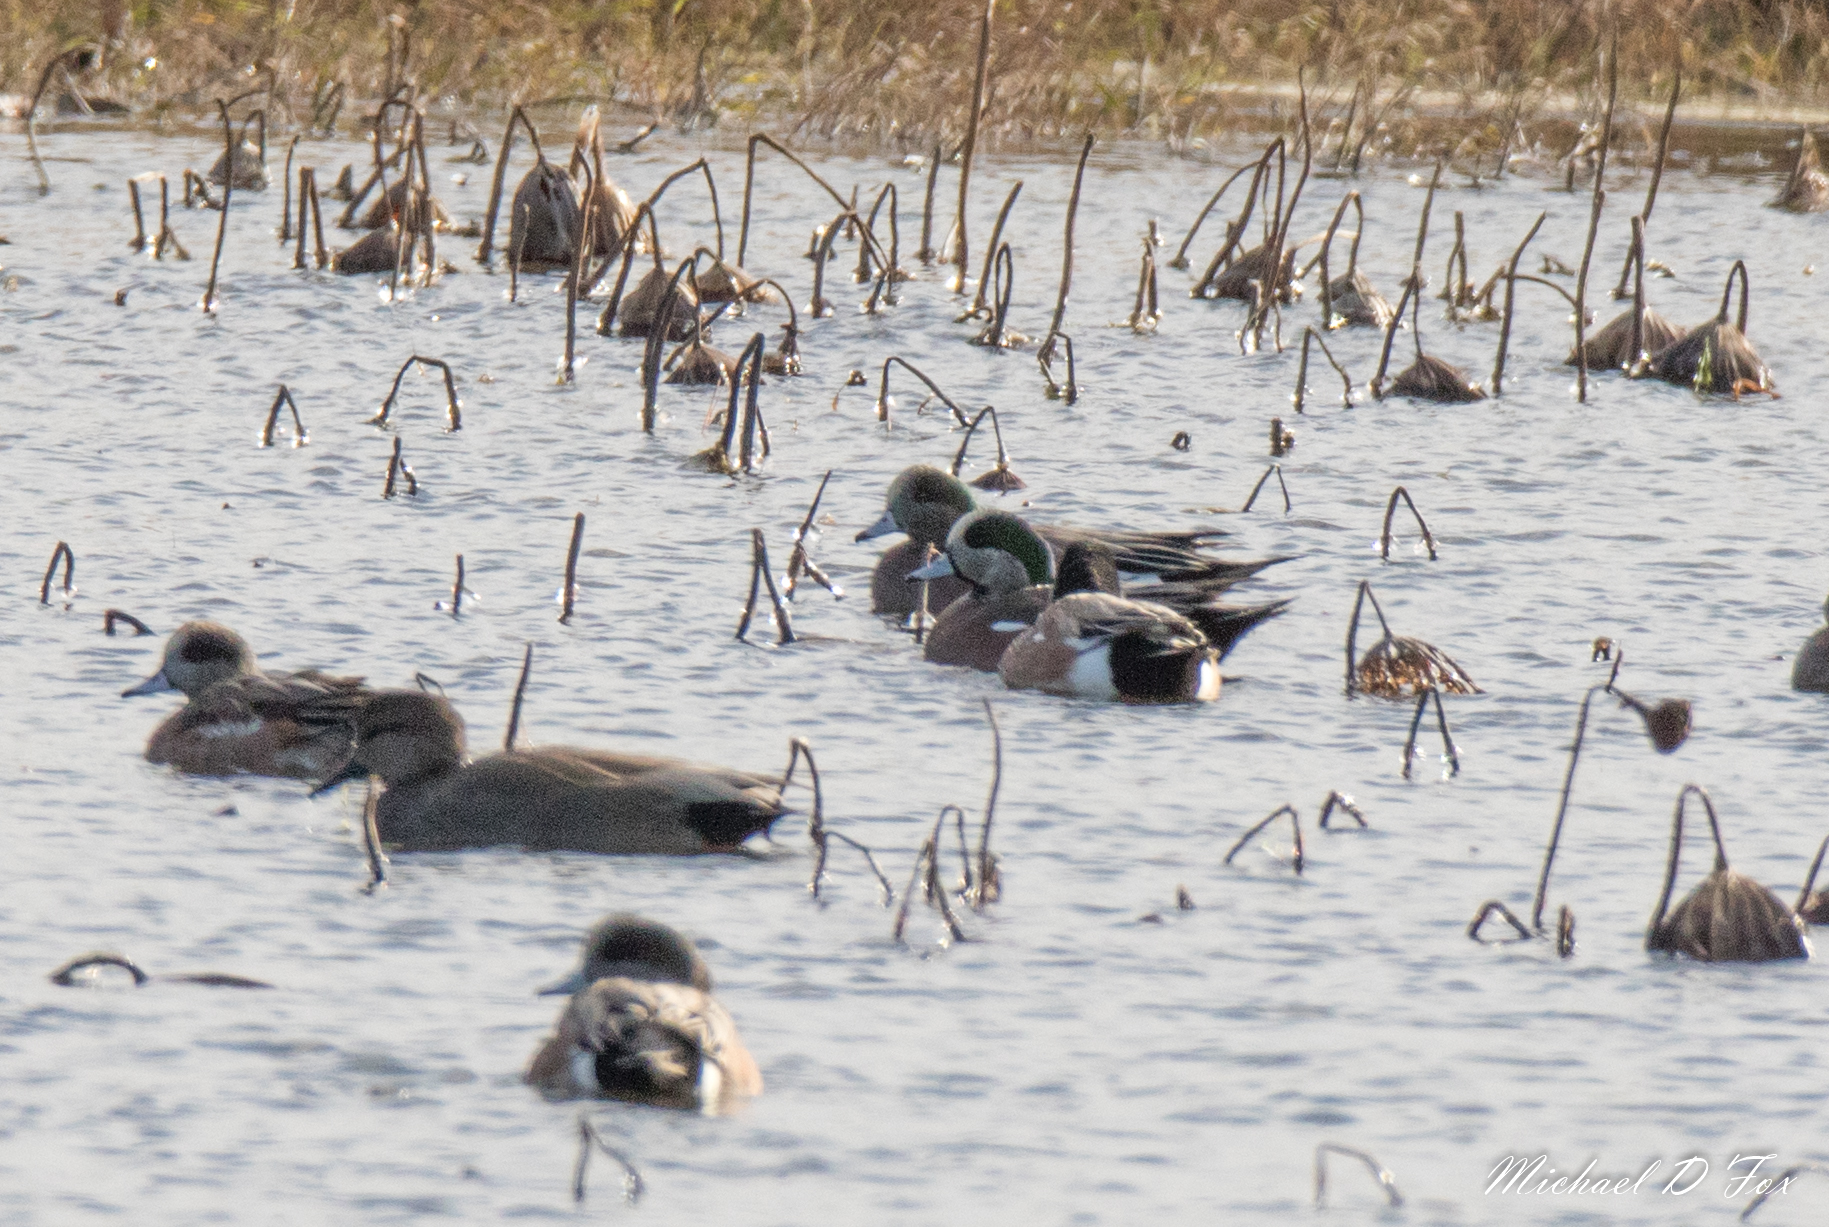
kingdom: Animalia
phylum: Chordata
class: Aves
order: Anseriformes
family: Anatidae
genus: Mareca
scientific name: Mareca americana
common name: American wigeon
